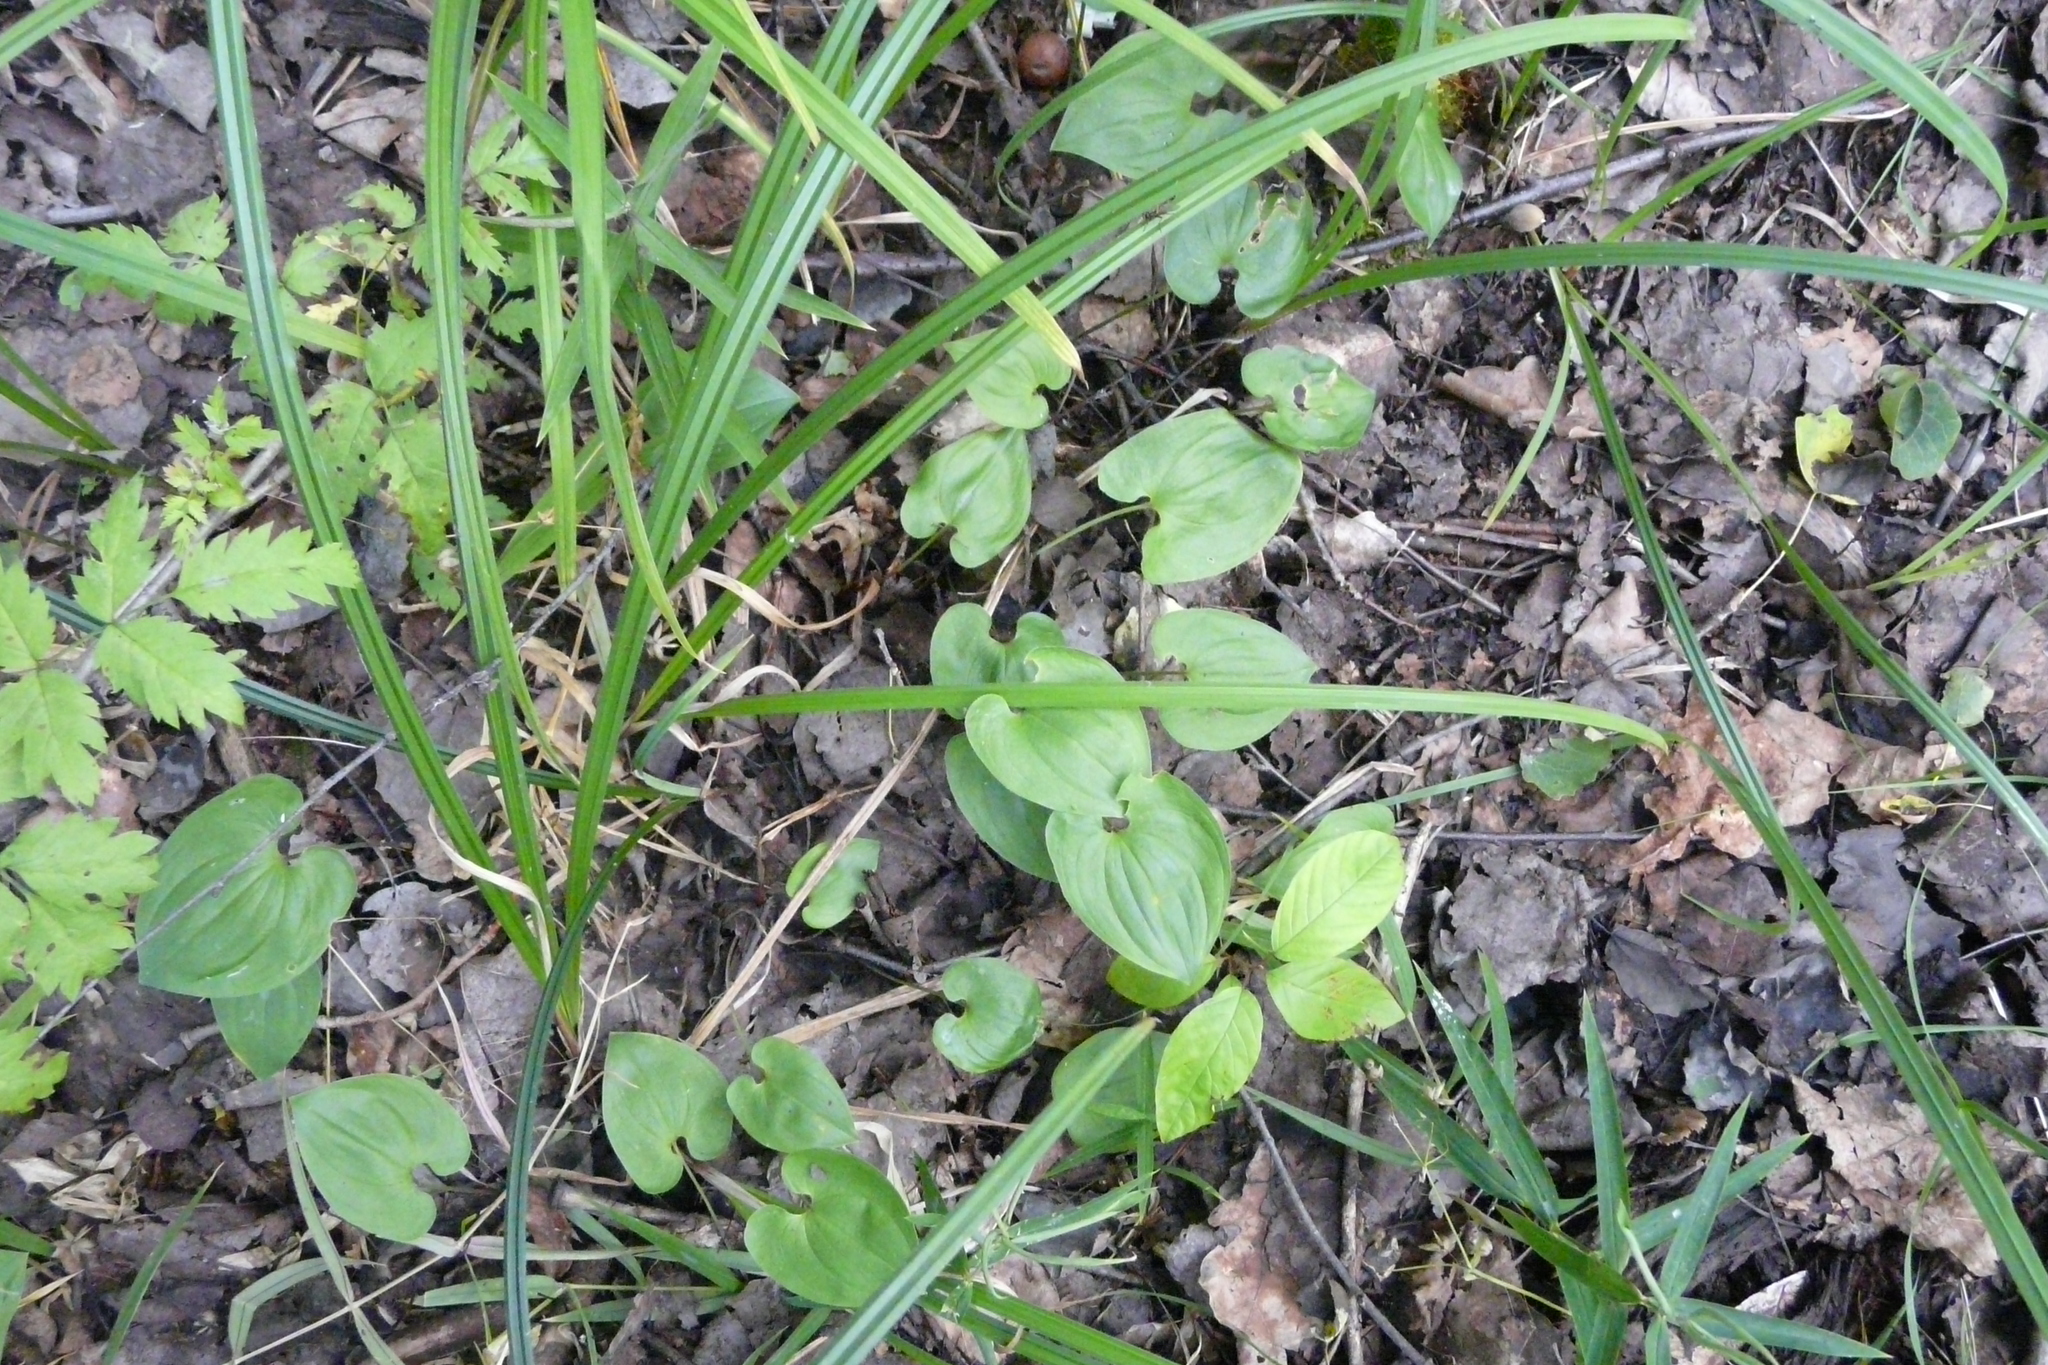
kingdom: Plantae
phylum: Tracheophyta
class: Liliopsida
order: Asparagales
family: Asparagaceae
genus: Maianthemum
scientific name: Maianthemum bifolium
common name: May lily
